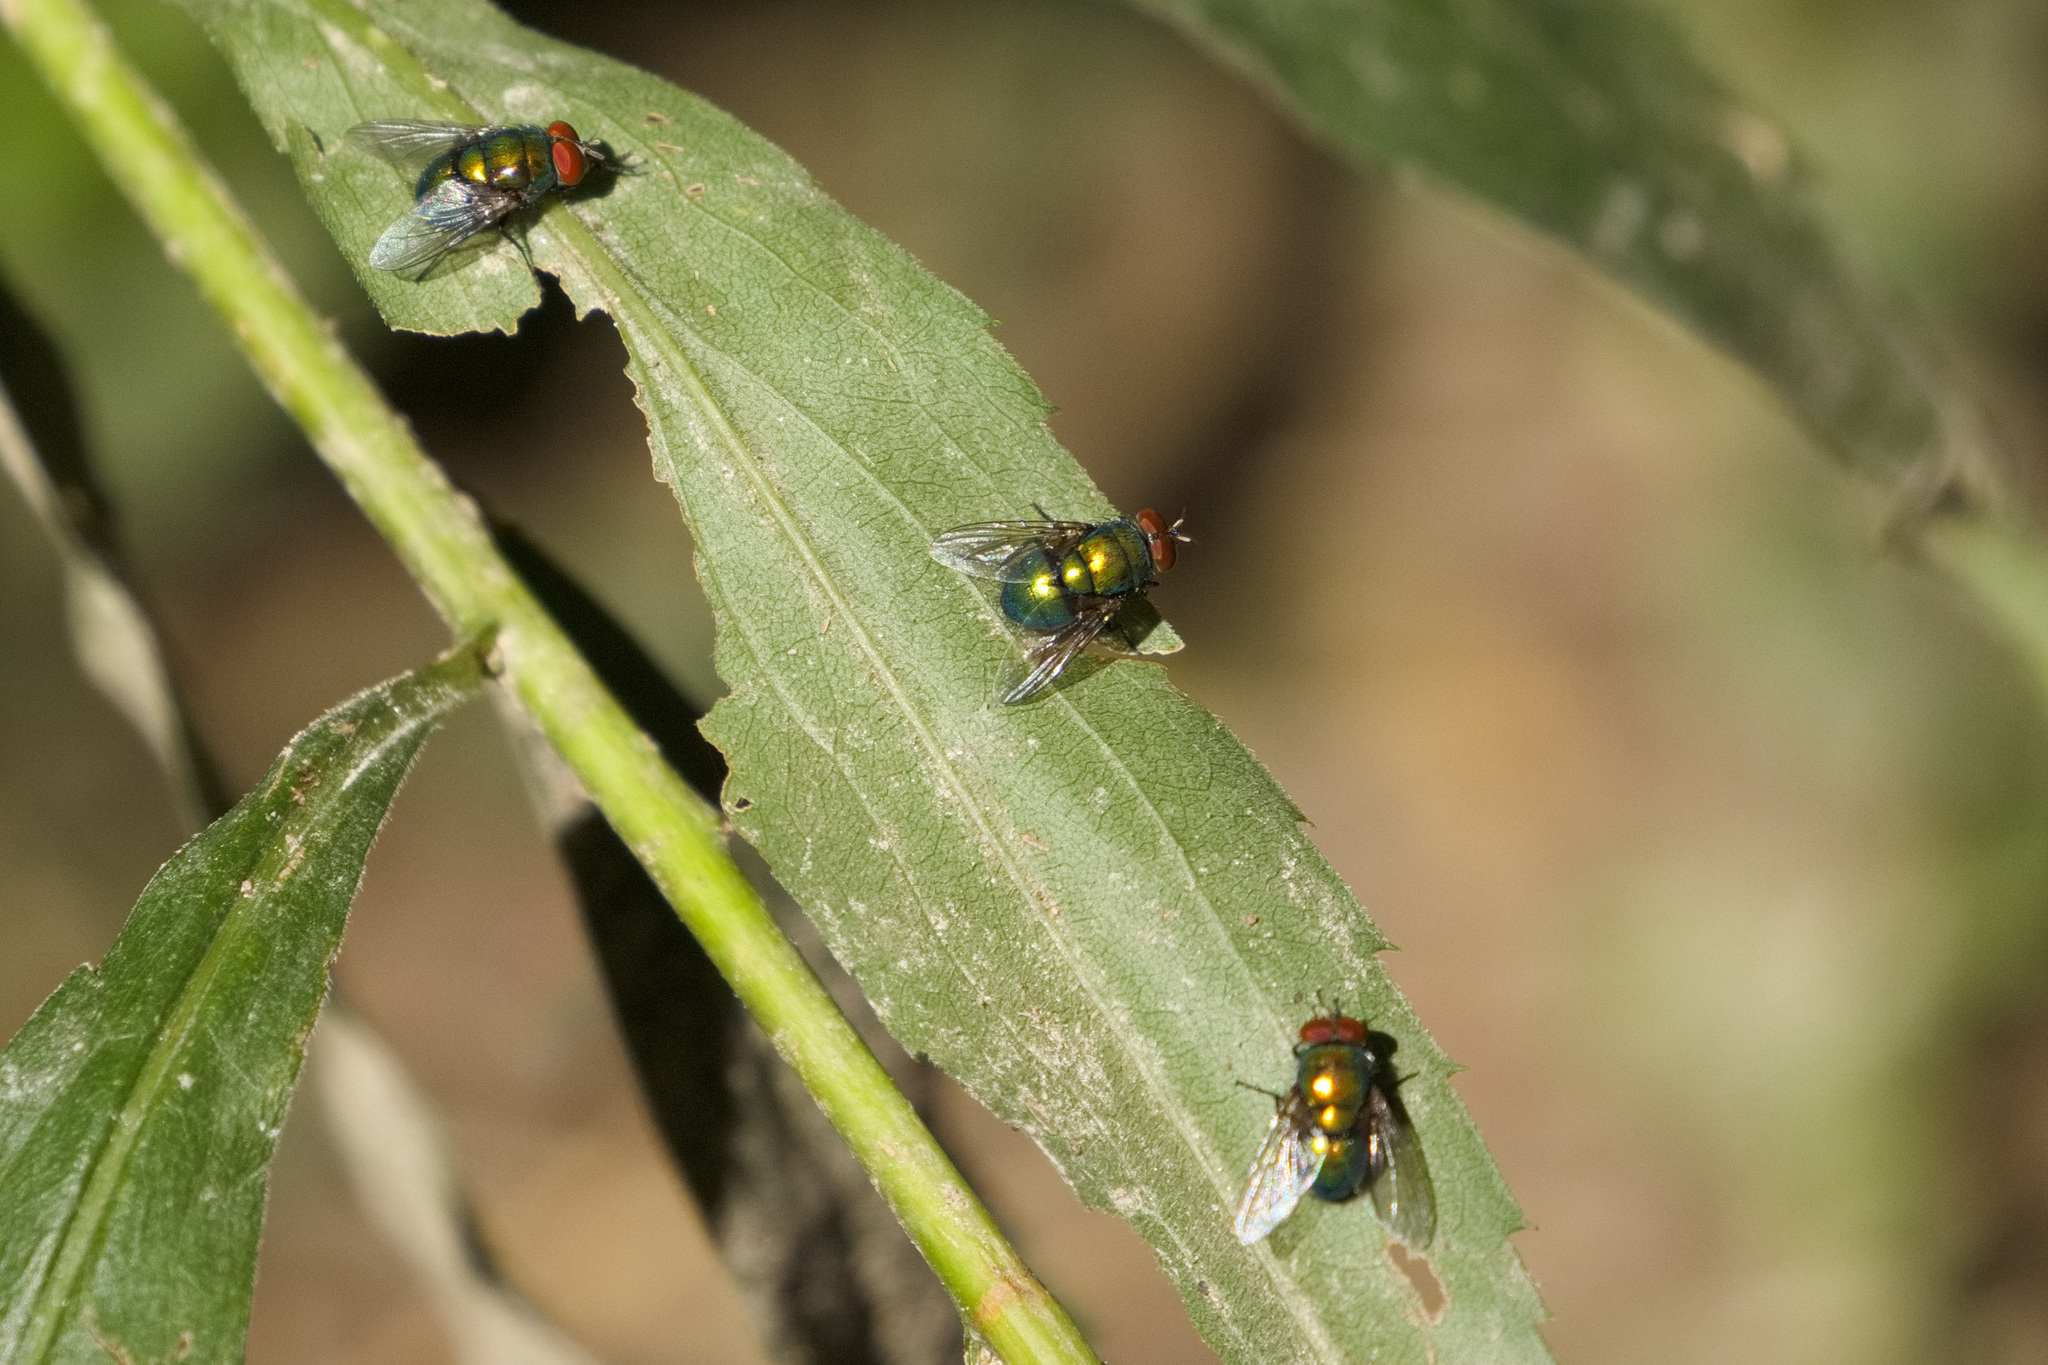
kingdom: Animalia
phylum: Arthropoda
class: Insecta
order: Diptera
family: Calliphoridae
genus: Lucilia
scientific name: Lucilia illustris
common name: Illustrious greenbottle
